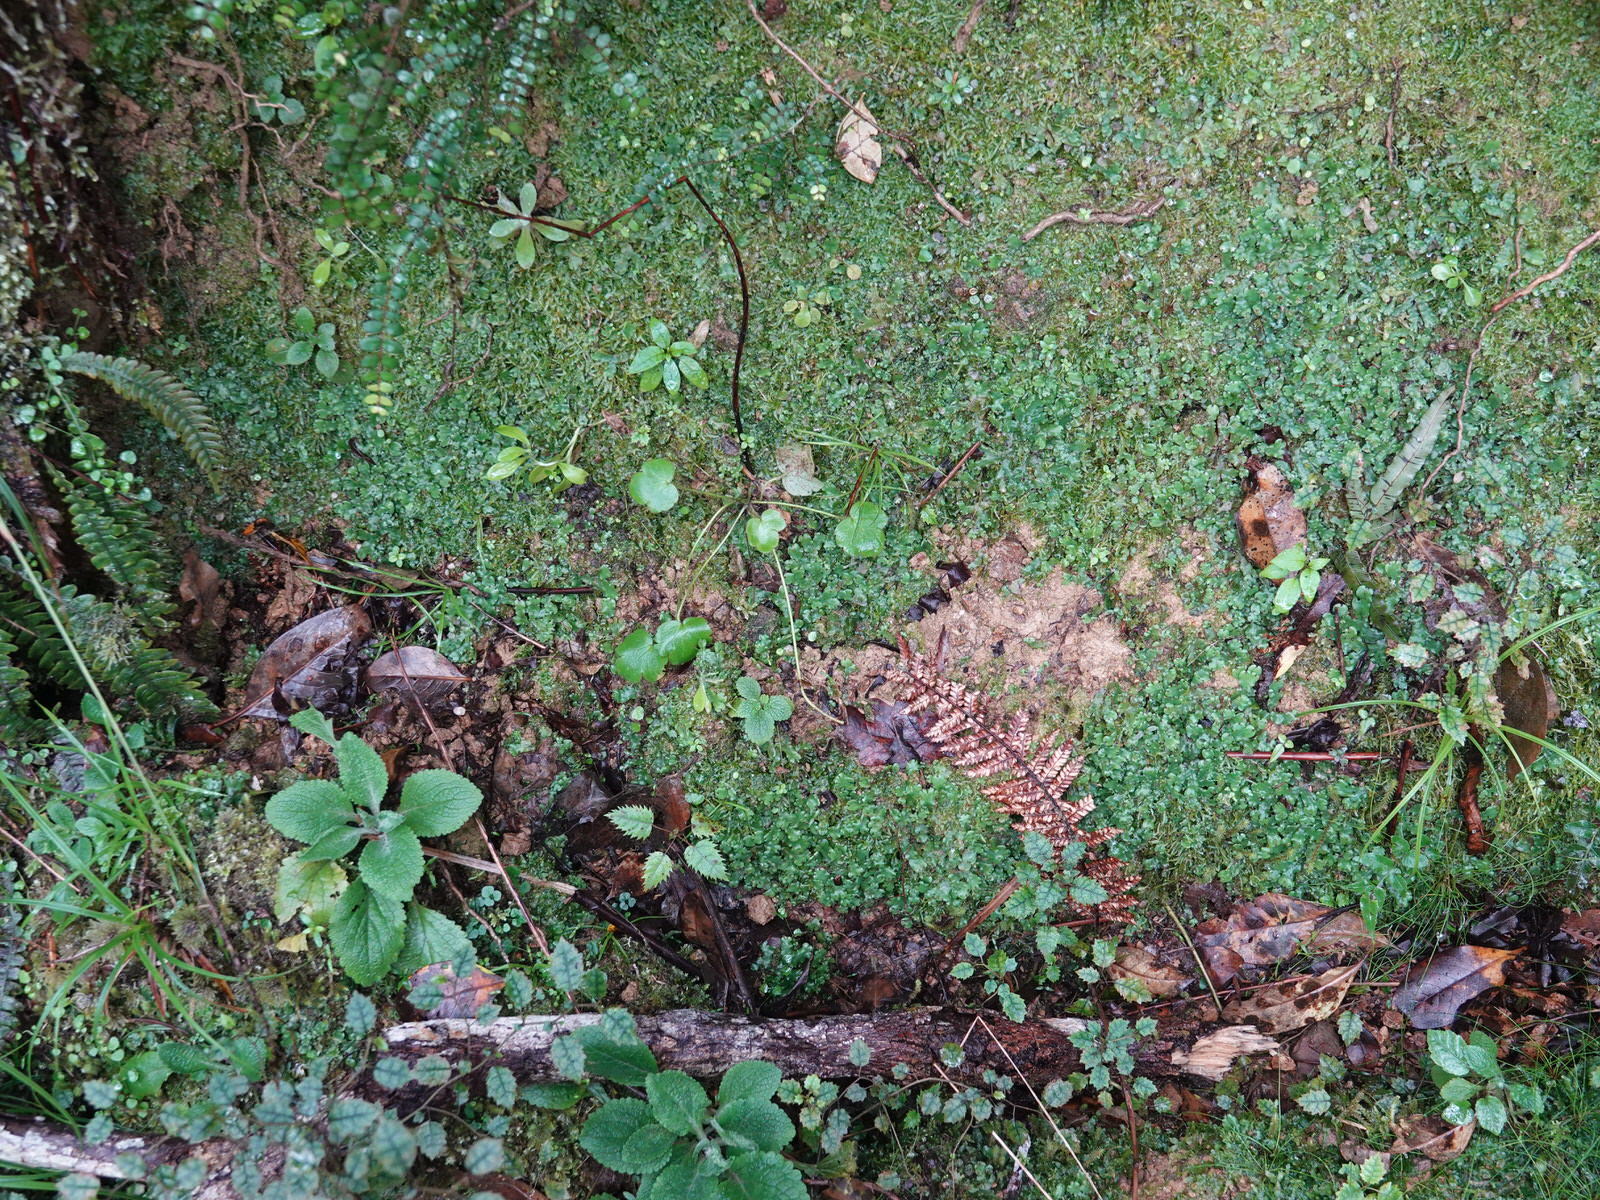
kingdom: Plantae
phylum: Tracheophyta
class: Magnoliopsida
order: Ranunculales
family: Ranunculaceae
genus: Ranunculus
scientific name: Ranunculus reflexus
